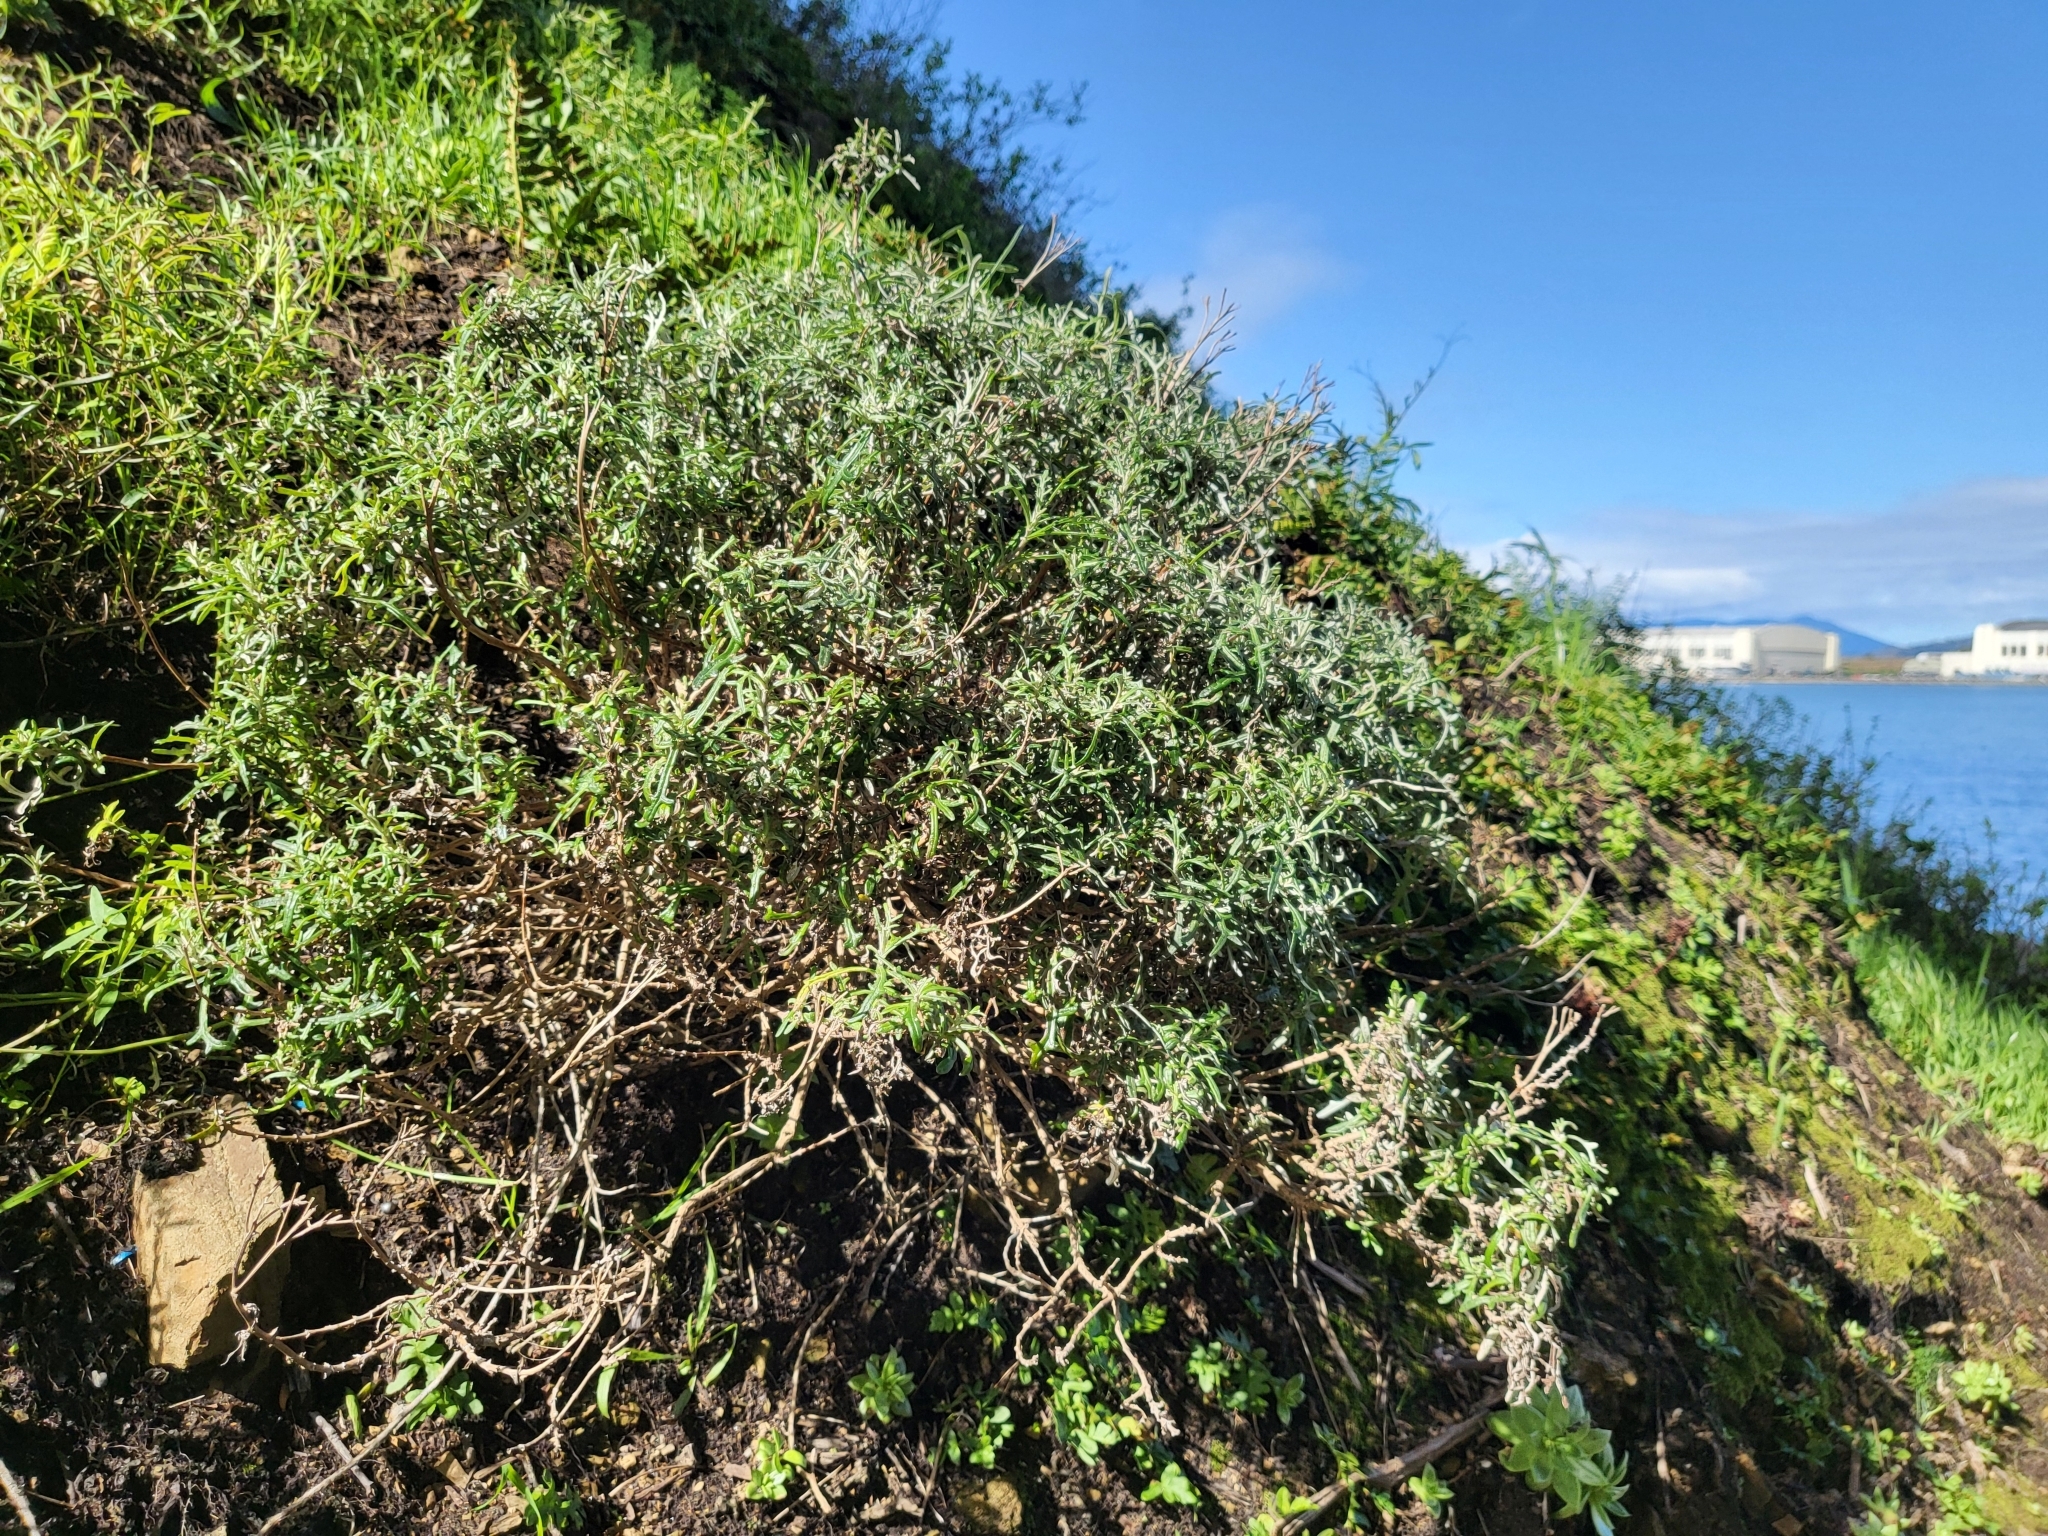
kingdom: Plantae
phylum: Tracheophyta
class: Magnoliopsida
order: Asterales
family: Asteraceae
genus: Eriophyllum
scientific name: Eriophyllum staechadifolium
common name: Lizardtail
